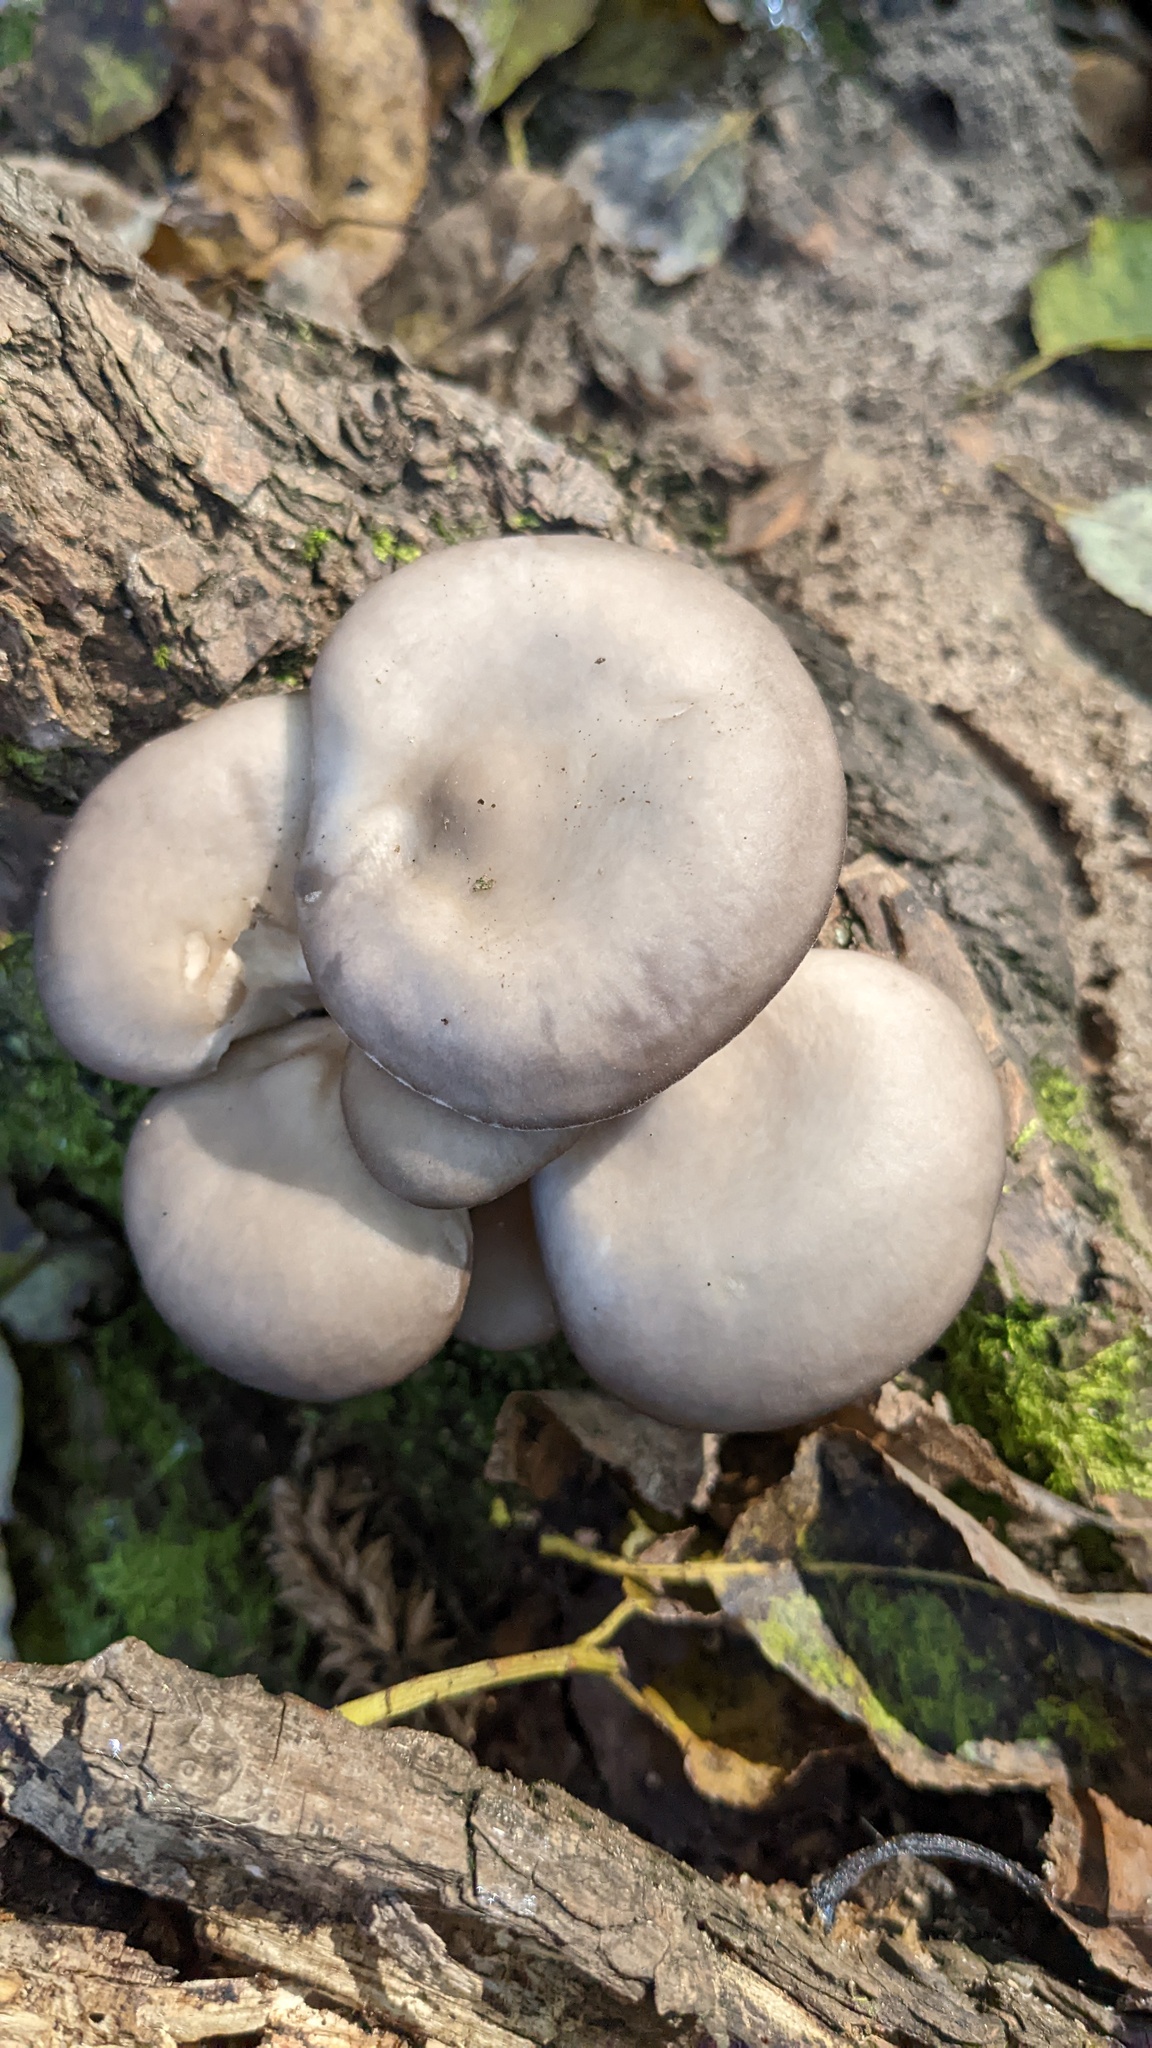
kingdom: Fungi
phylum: Basidiomycota
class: Agaricomycetes
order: Agaricales
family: Pleurotaceae
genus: Pleurotus
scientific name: Pleurotus ostreatus
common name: Oyster mushroom
